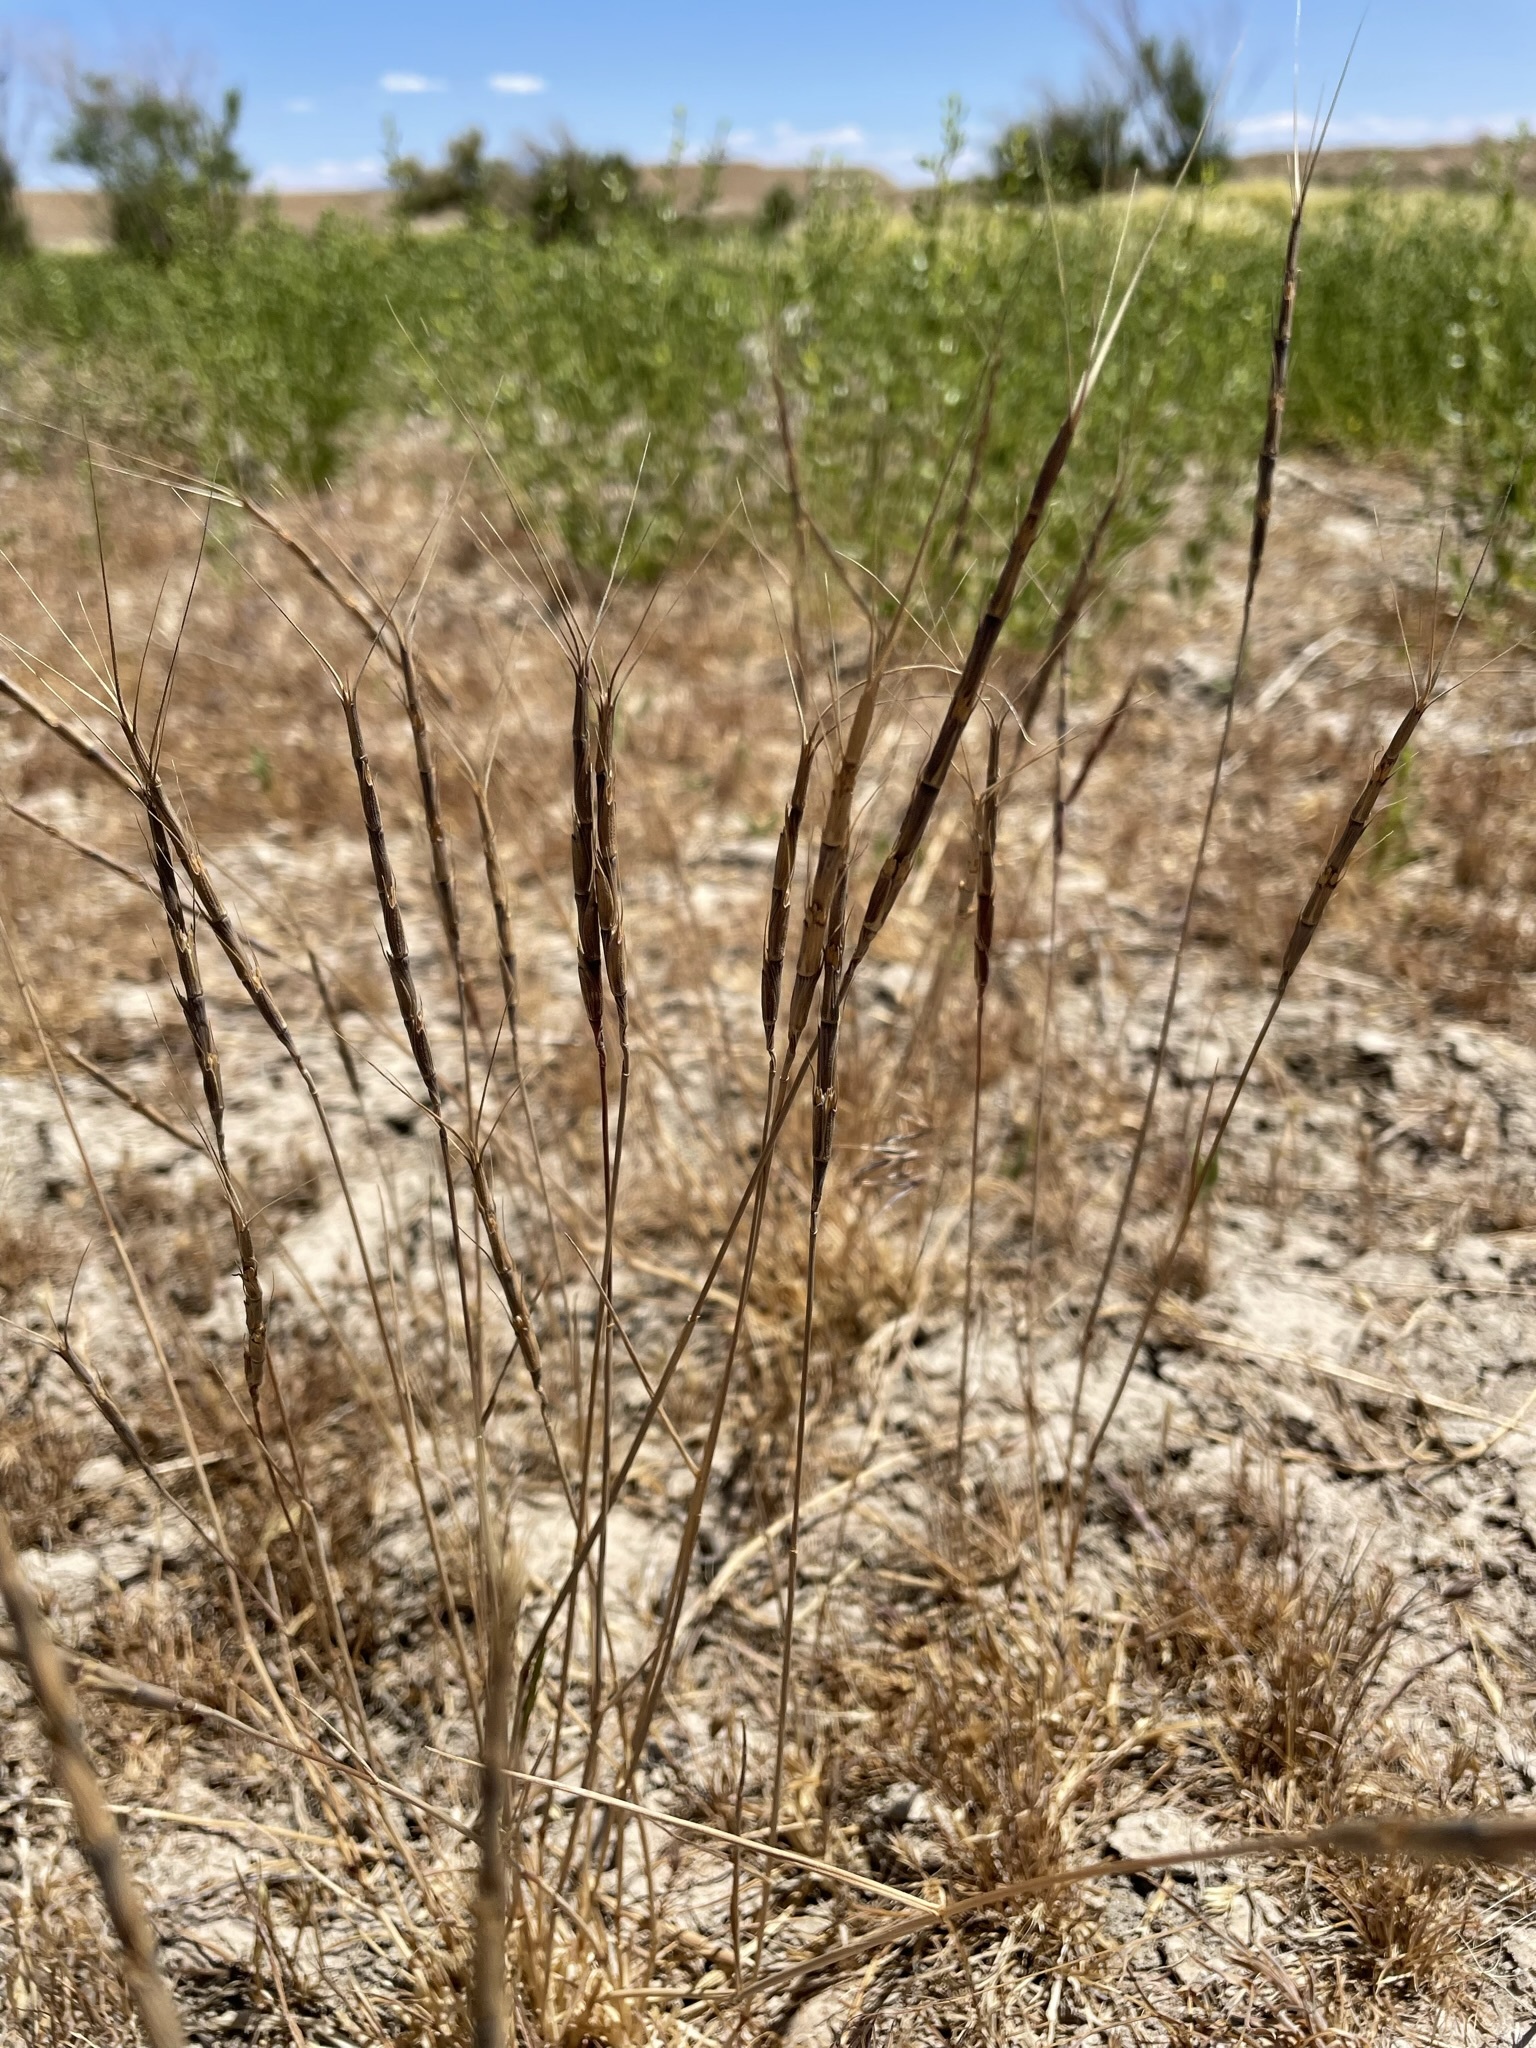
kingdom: Plantae
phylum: Tracheophyta
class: Liliopsida
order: Poales
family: Poaceae
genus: Aegilops
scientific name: Aegilops cylindrica
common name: Jointed goatgrass
